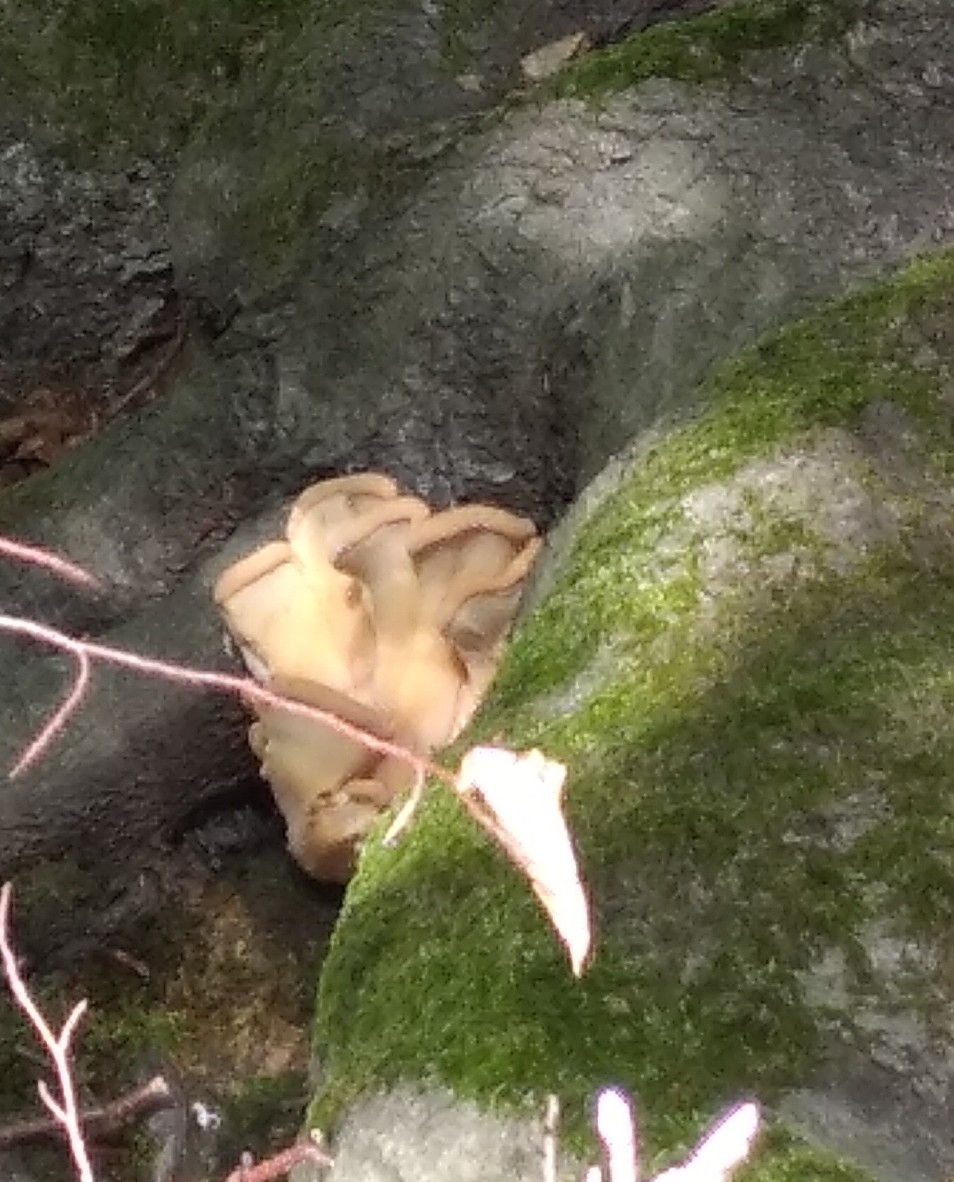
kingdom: Fungi
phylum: Basidiomycota
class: Agaricomycetes
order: Polyporales
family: Meripilaceae
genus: Meripilus
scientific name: Meripilus giganteus
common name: Giant polypore
